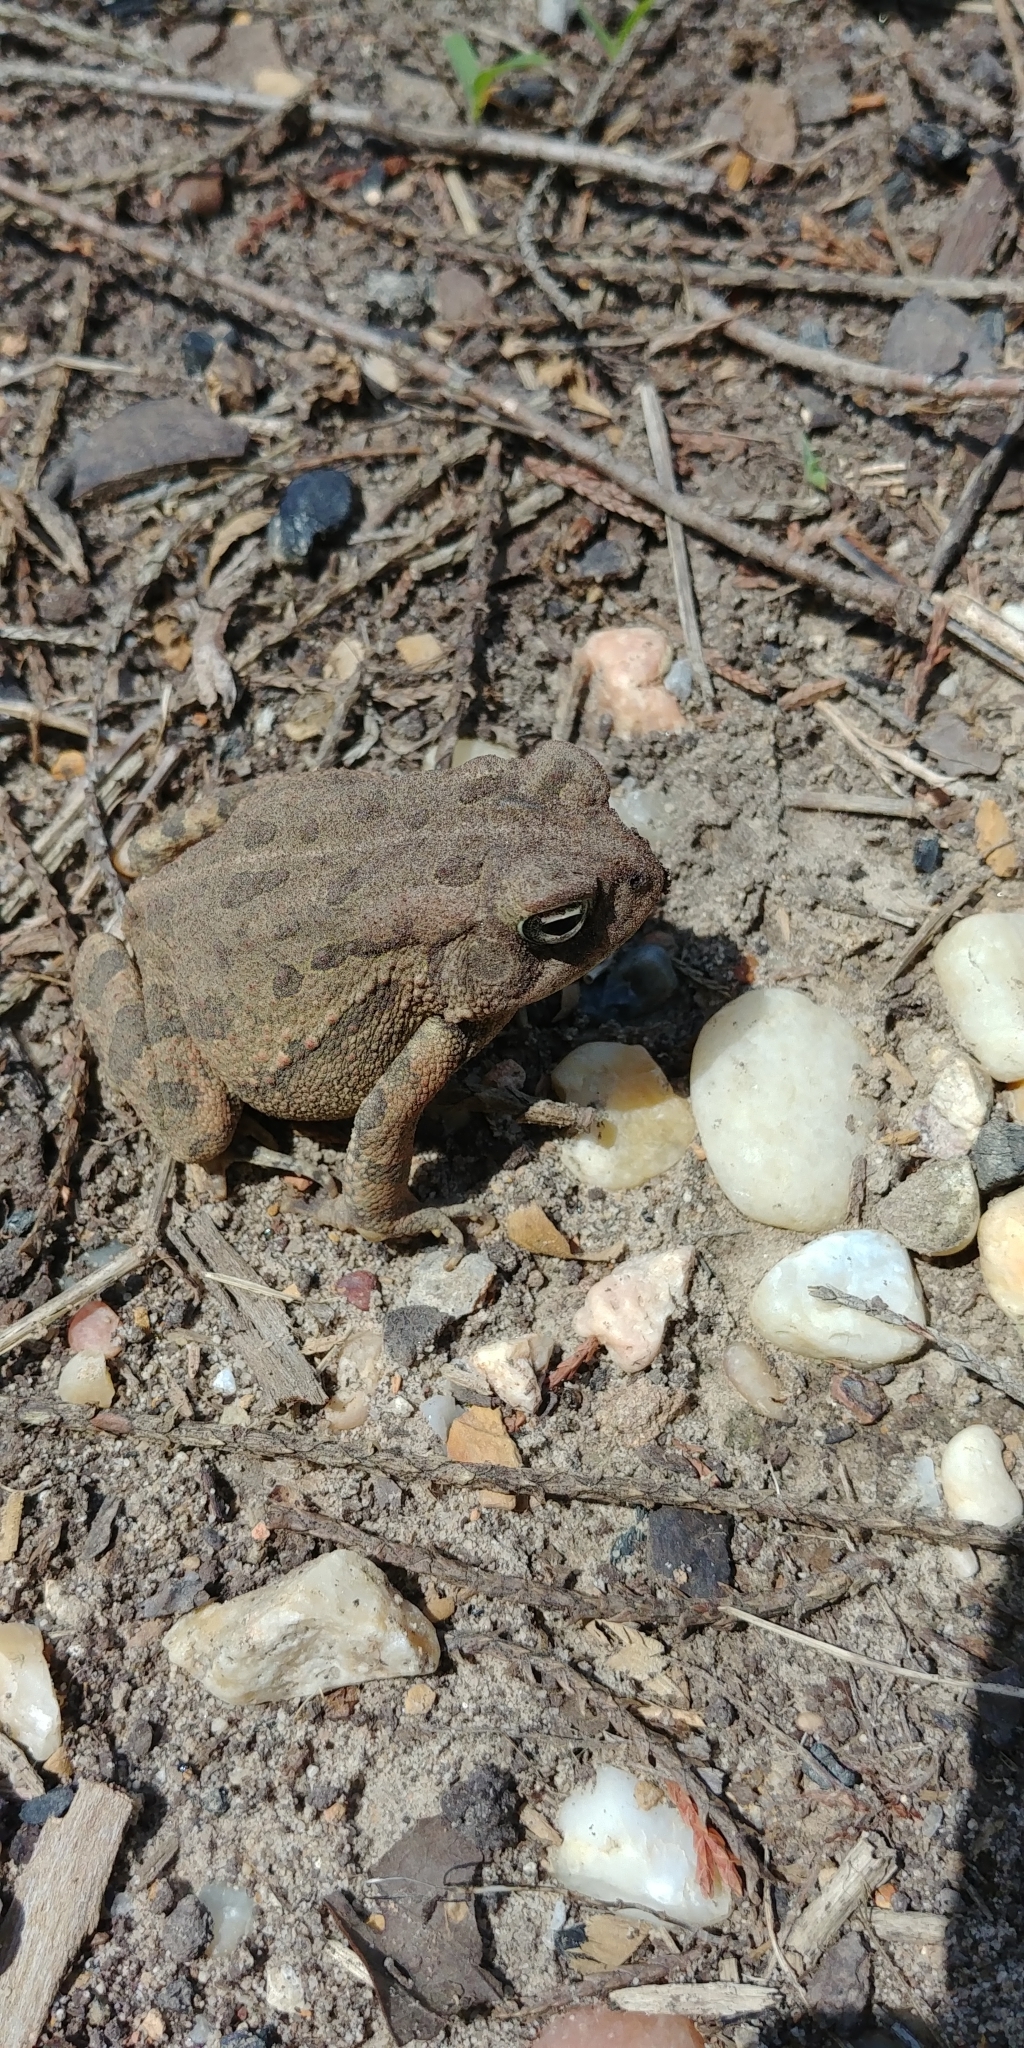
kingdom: Animalia
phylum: Chordata
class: Amphibia
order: Anura
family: Bufonidae
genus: Anaxyrus
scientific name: Anaxyrus fowleri
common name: Fowler's toad
